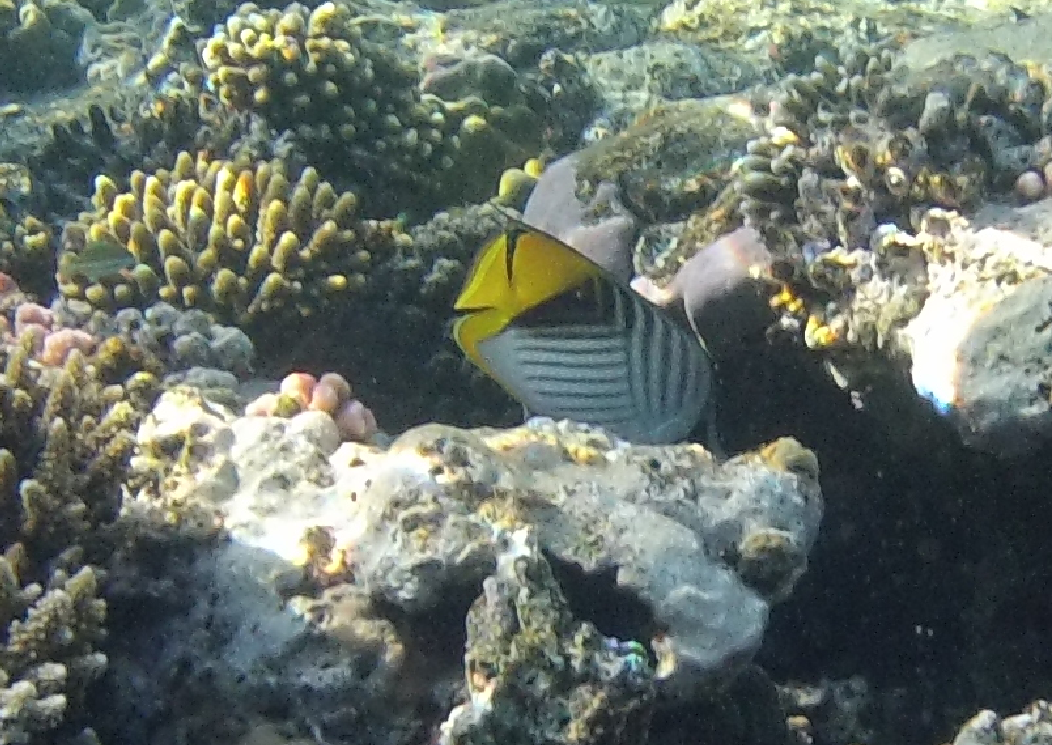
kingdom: Animalia
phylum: Chordata
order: Perciformes
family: Chaetodontidae
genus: Chaetodon
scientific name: Chaetodon auriga
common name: Threadfin butterflyfish
